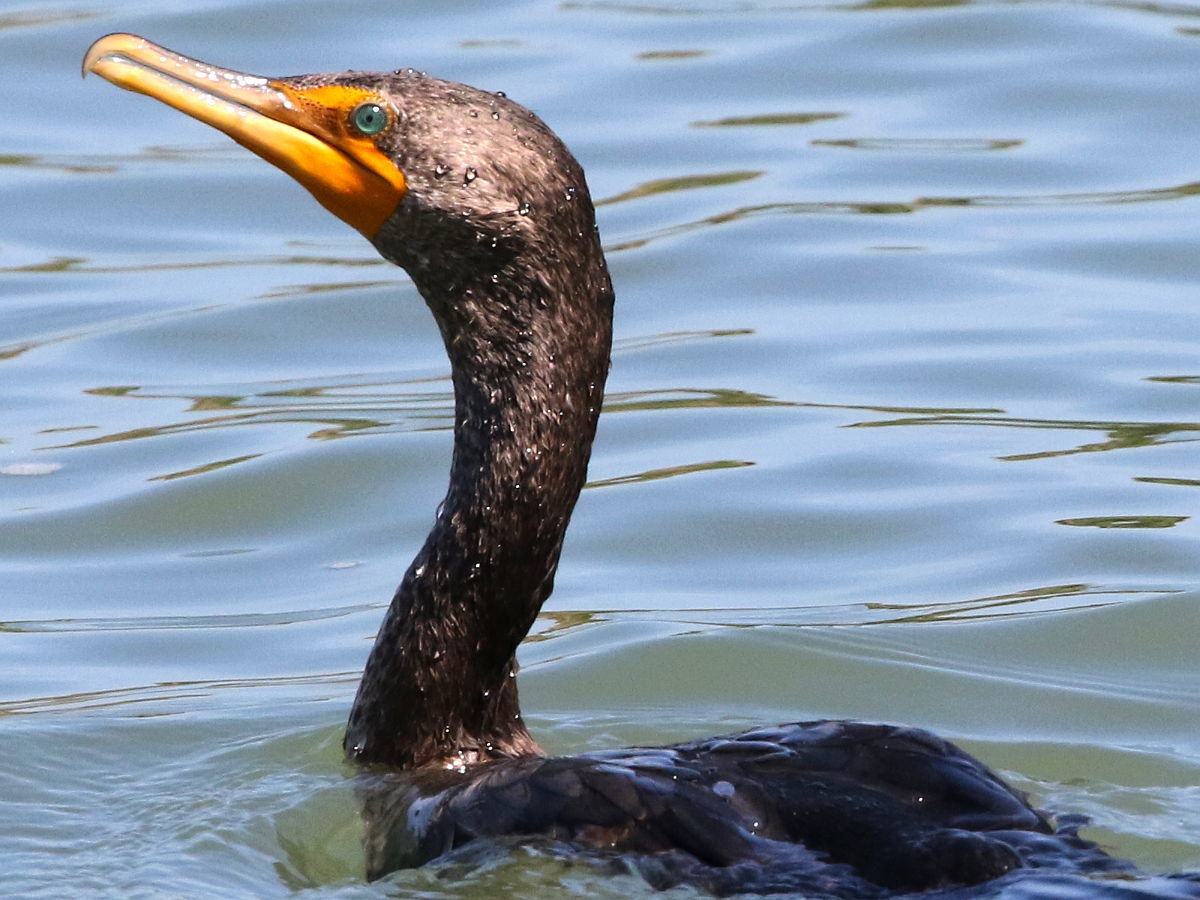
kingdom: Animalia
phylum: Chordata
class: Aves
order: Suliformes
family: Phalacrocoracidae
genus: Phalacrocorax
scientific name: Phalacrocorax auritus
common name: Double-crested cormorant
